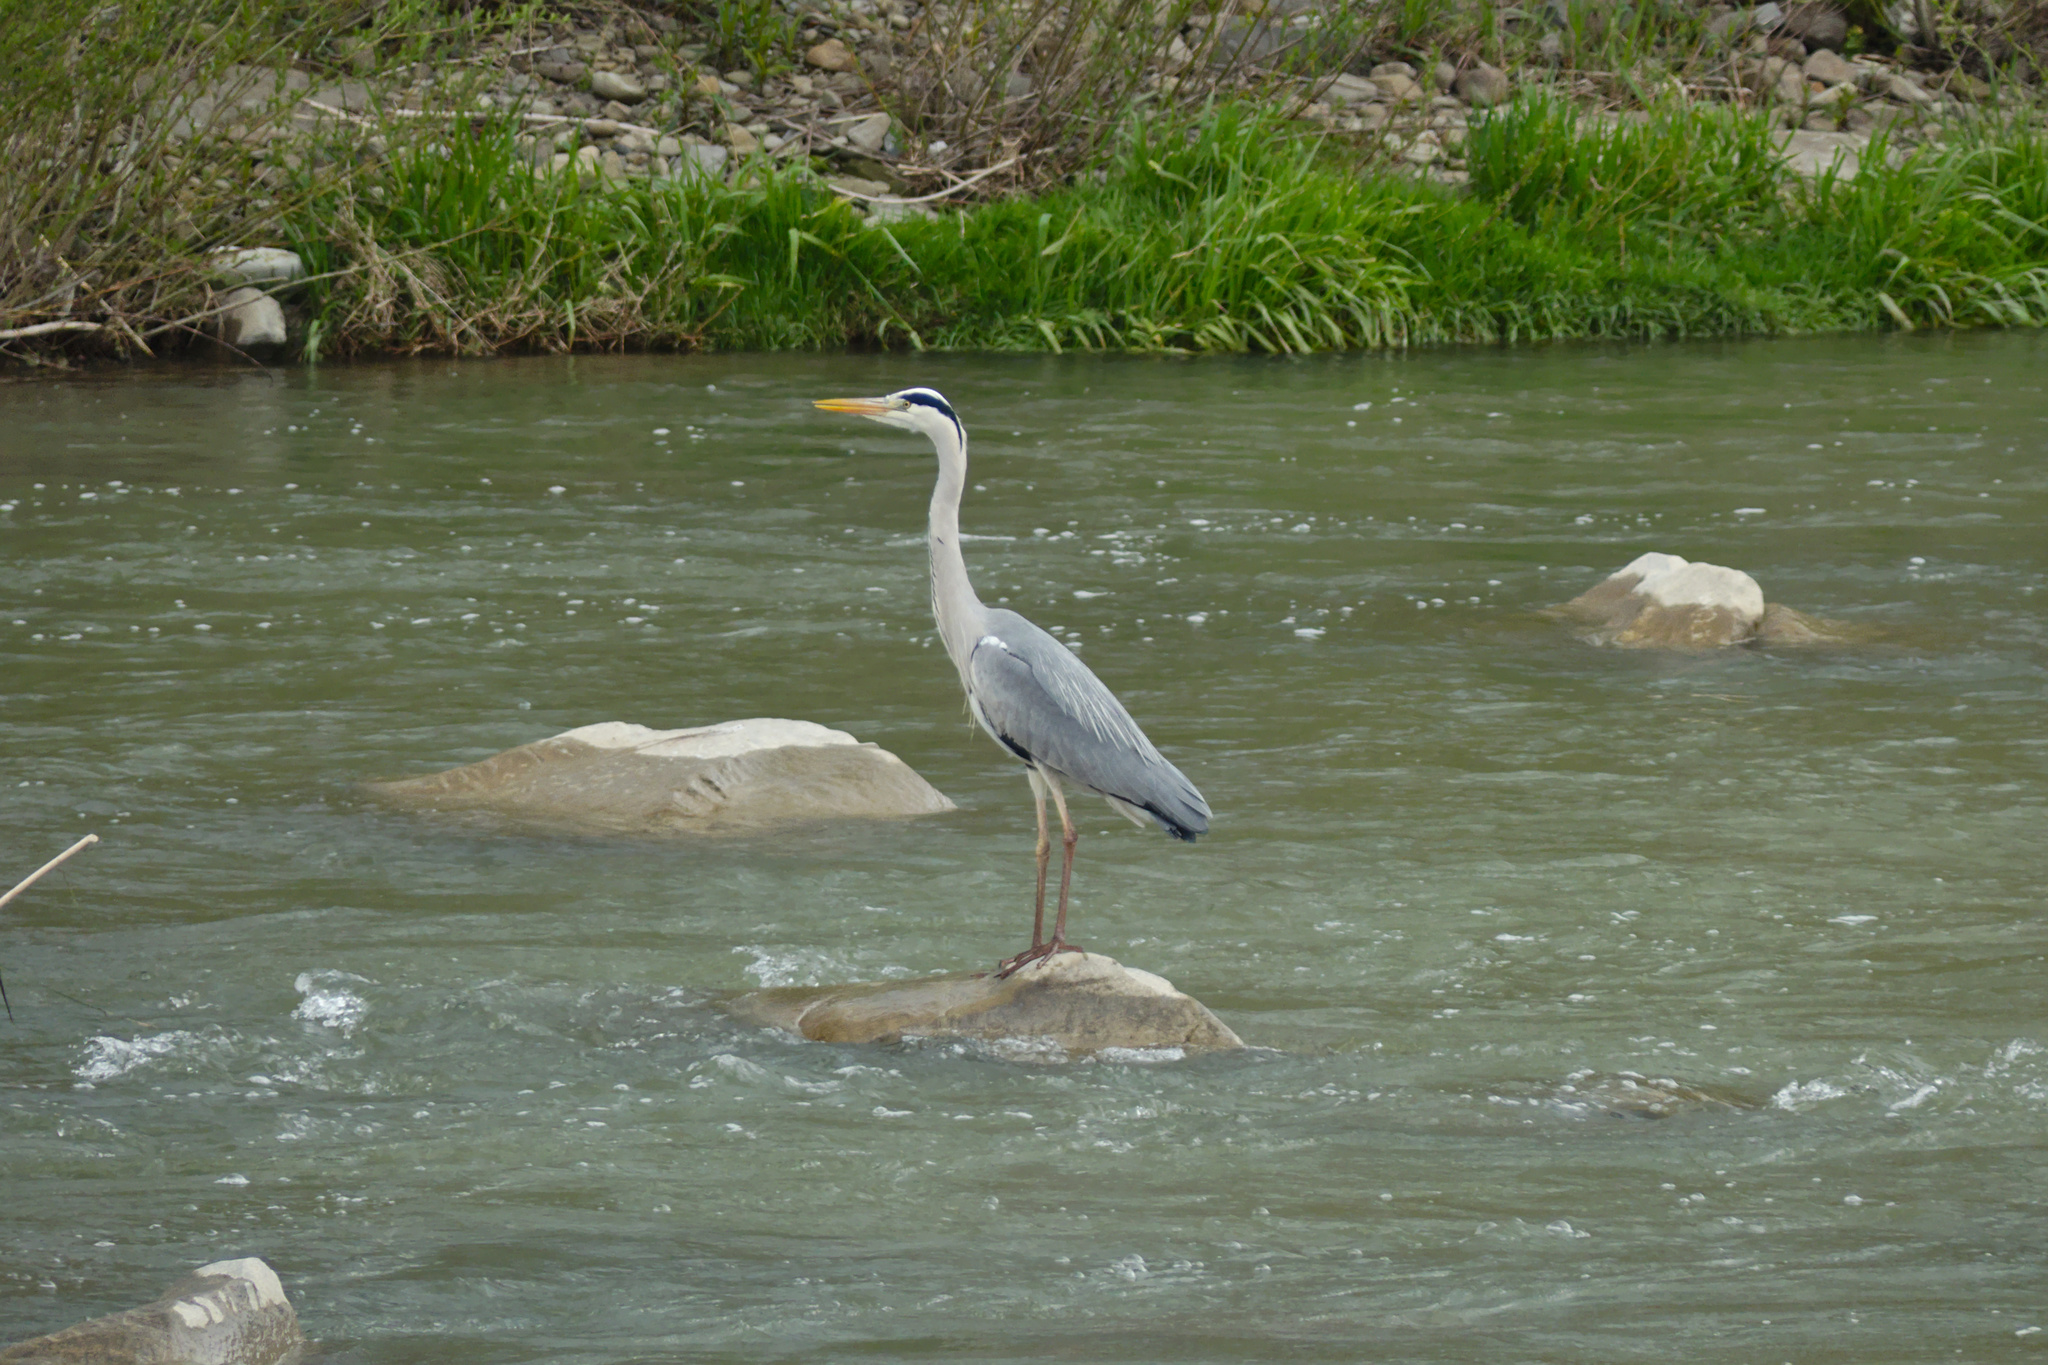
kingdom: Animalia
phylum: Chordata
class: Aves
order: Pelecaniformes
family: Ardeidae
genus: Ardea
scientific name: Ardea cinerea
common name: Grey heron
